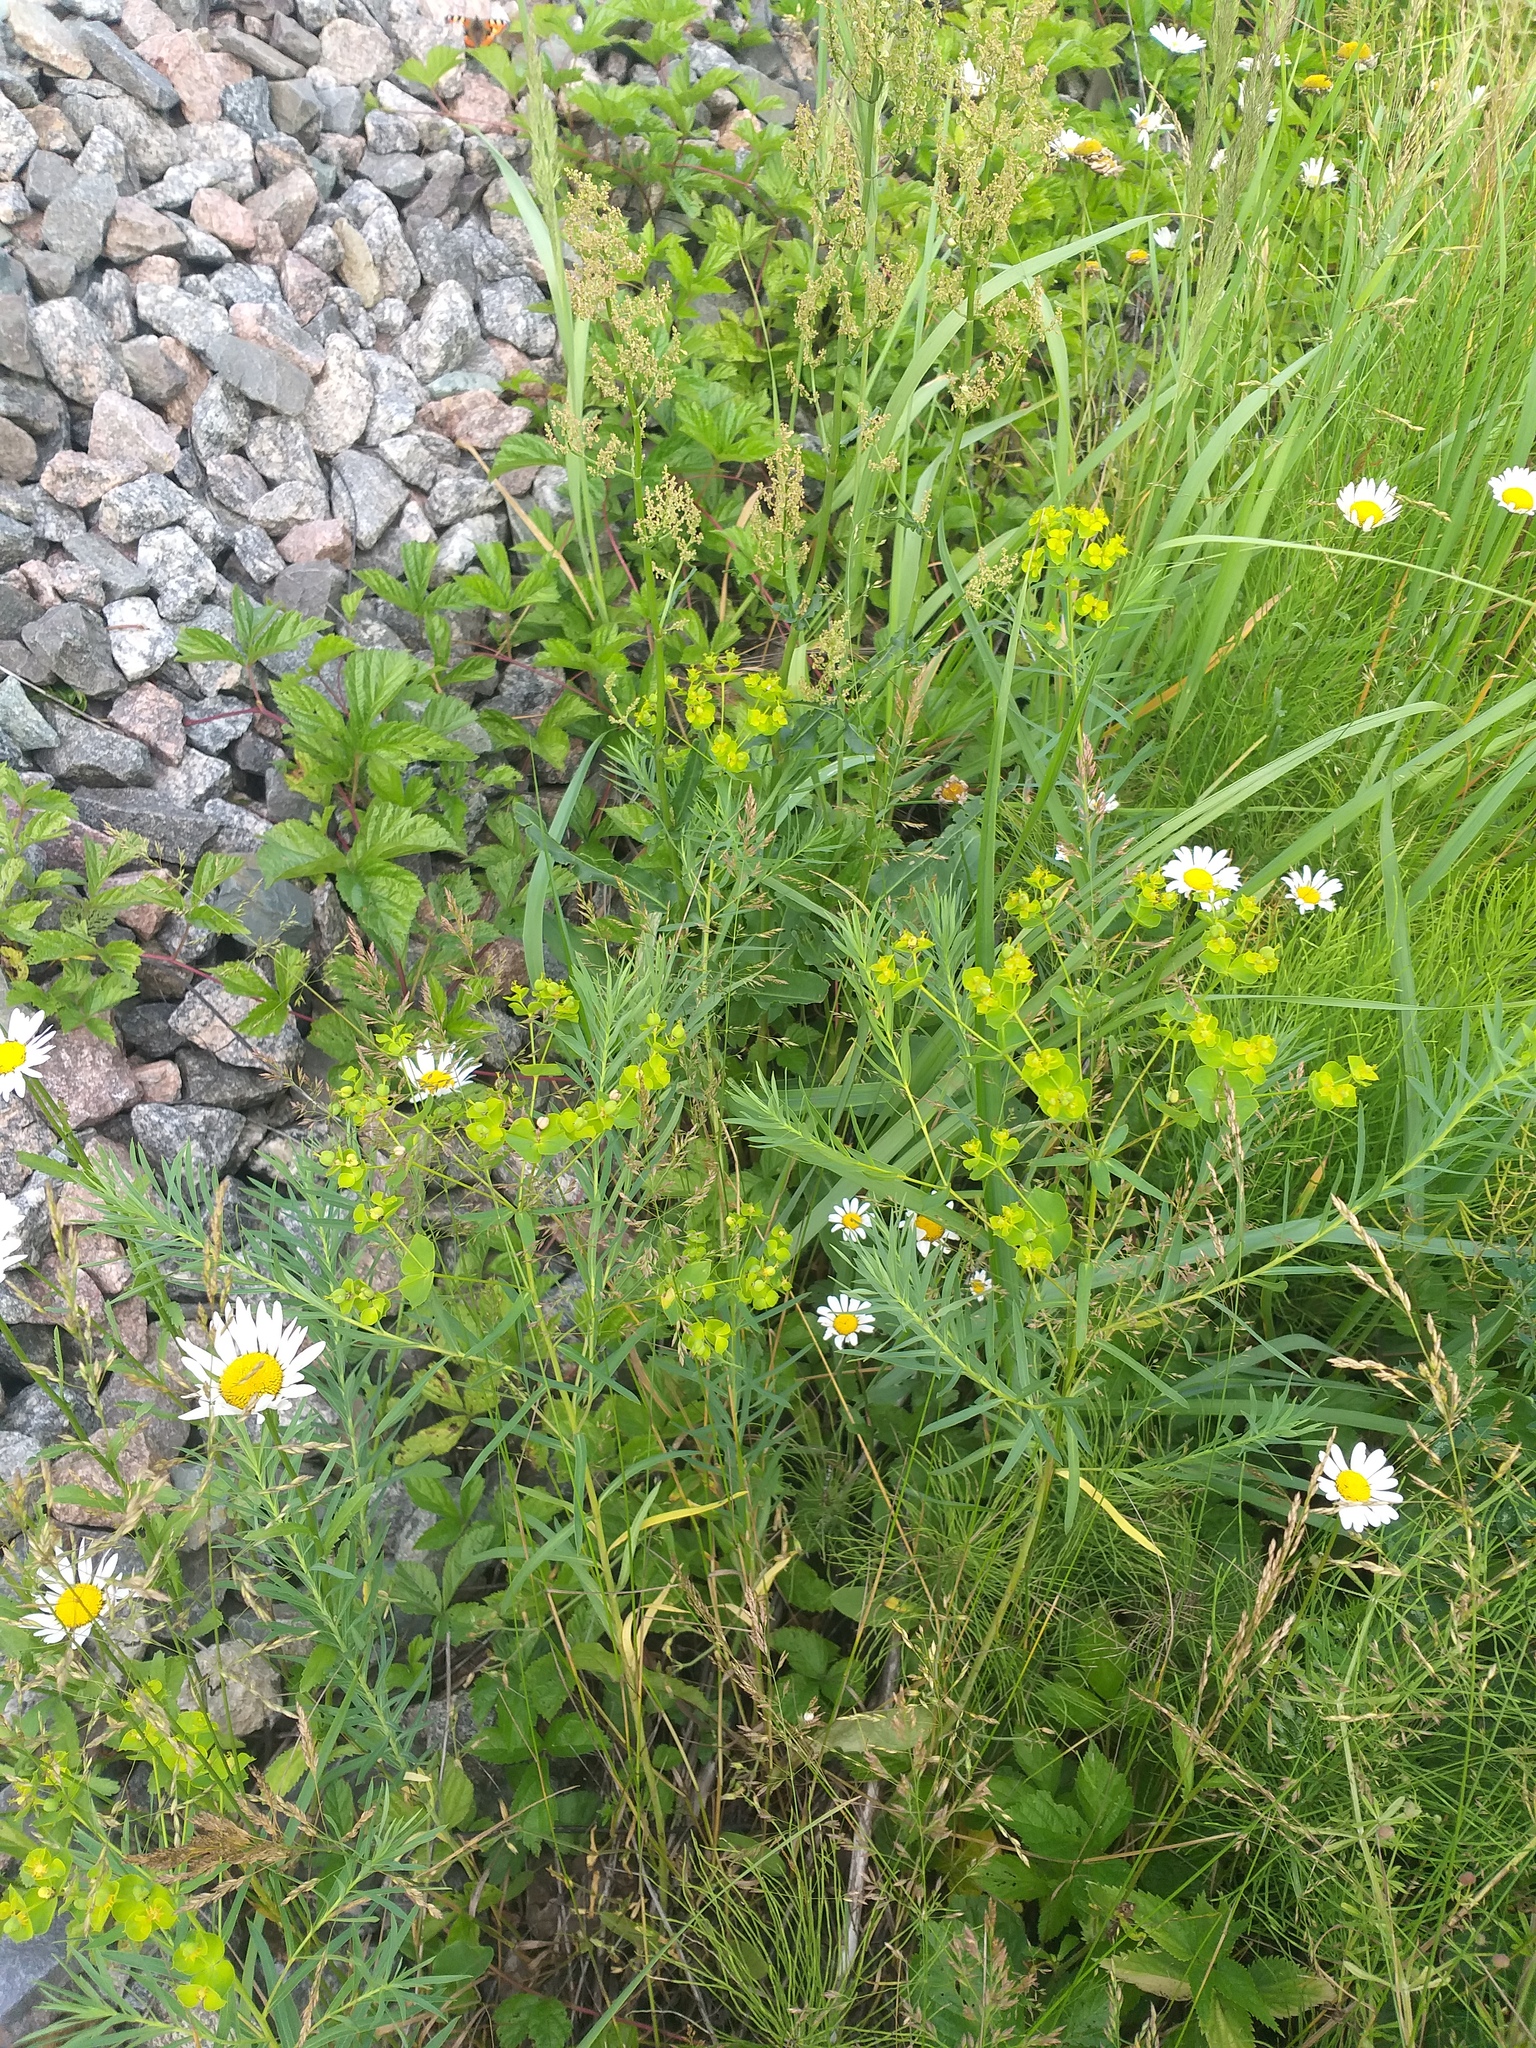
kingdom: Plantae
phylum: Tracheophyta
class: Magnoliopsida
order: Malpighiales
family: Euphorbiaceae
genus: Euphorbia
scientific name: Euphorbia virgata
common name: Leafy spurge
